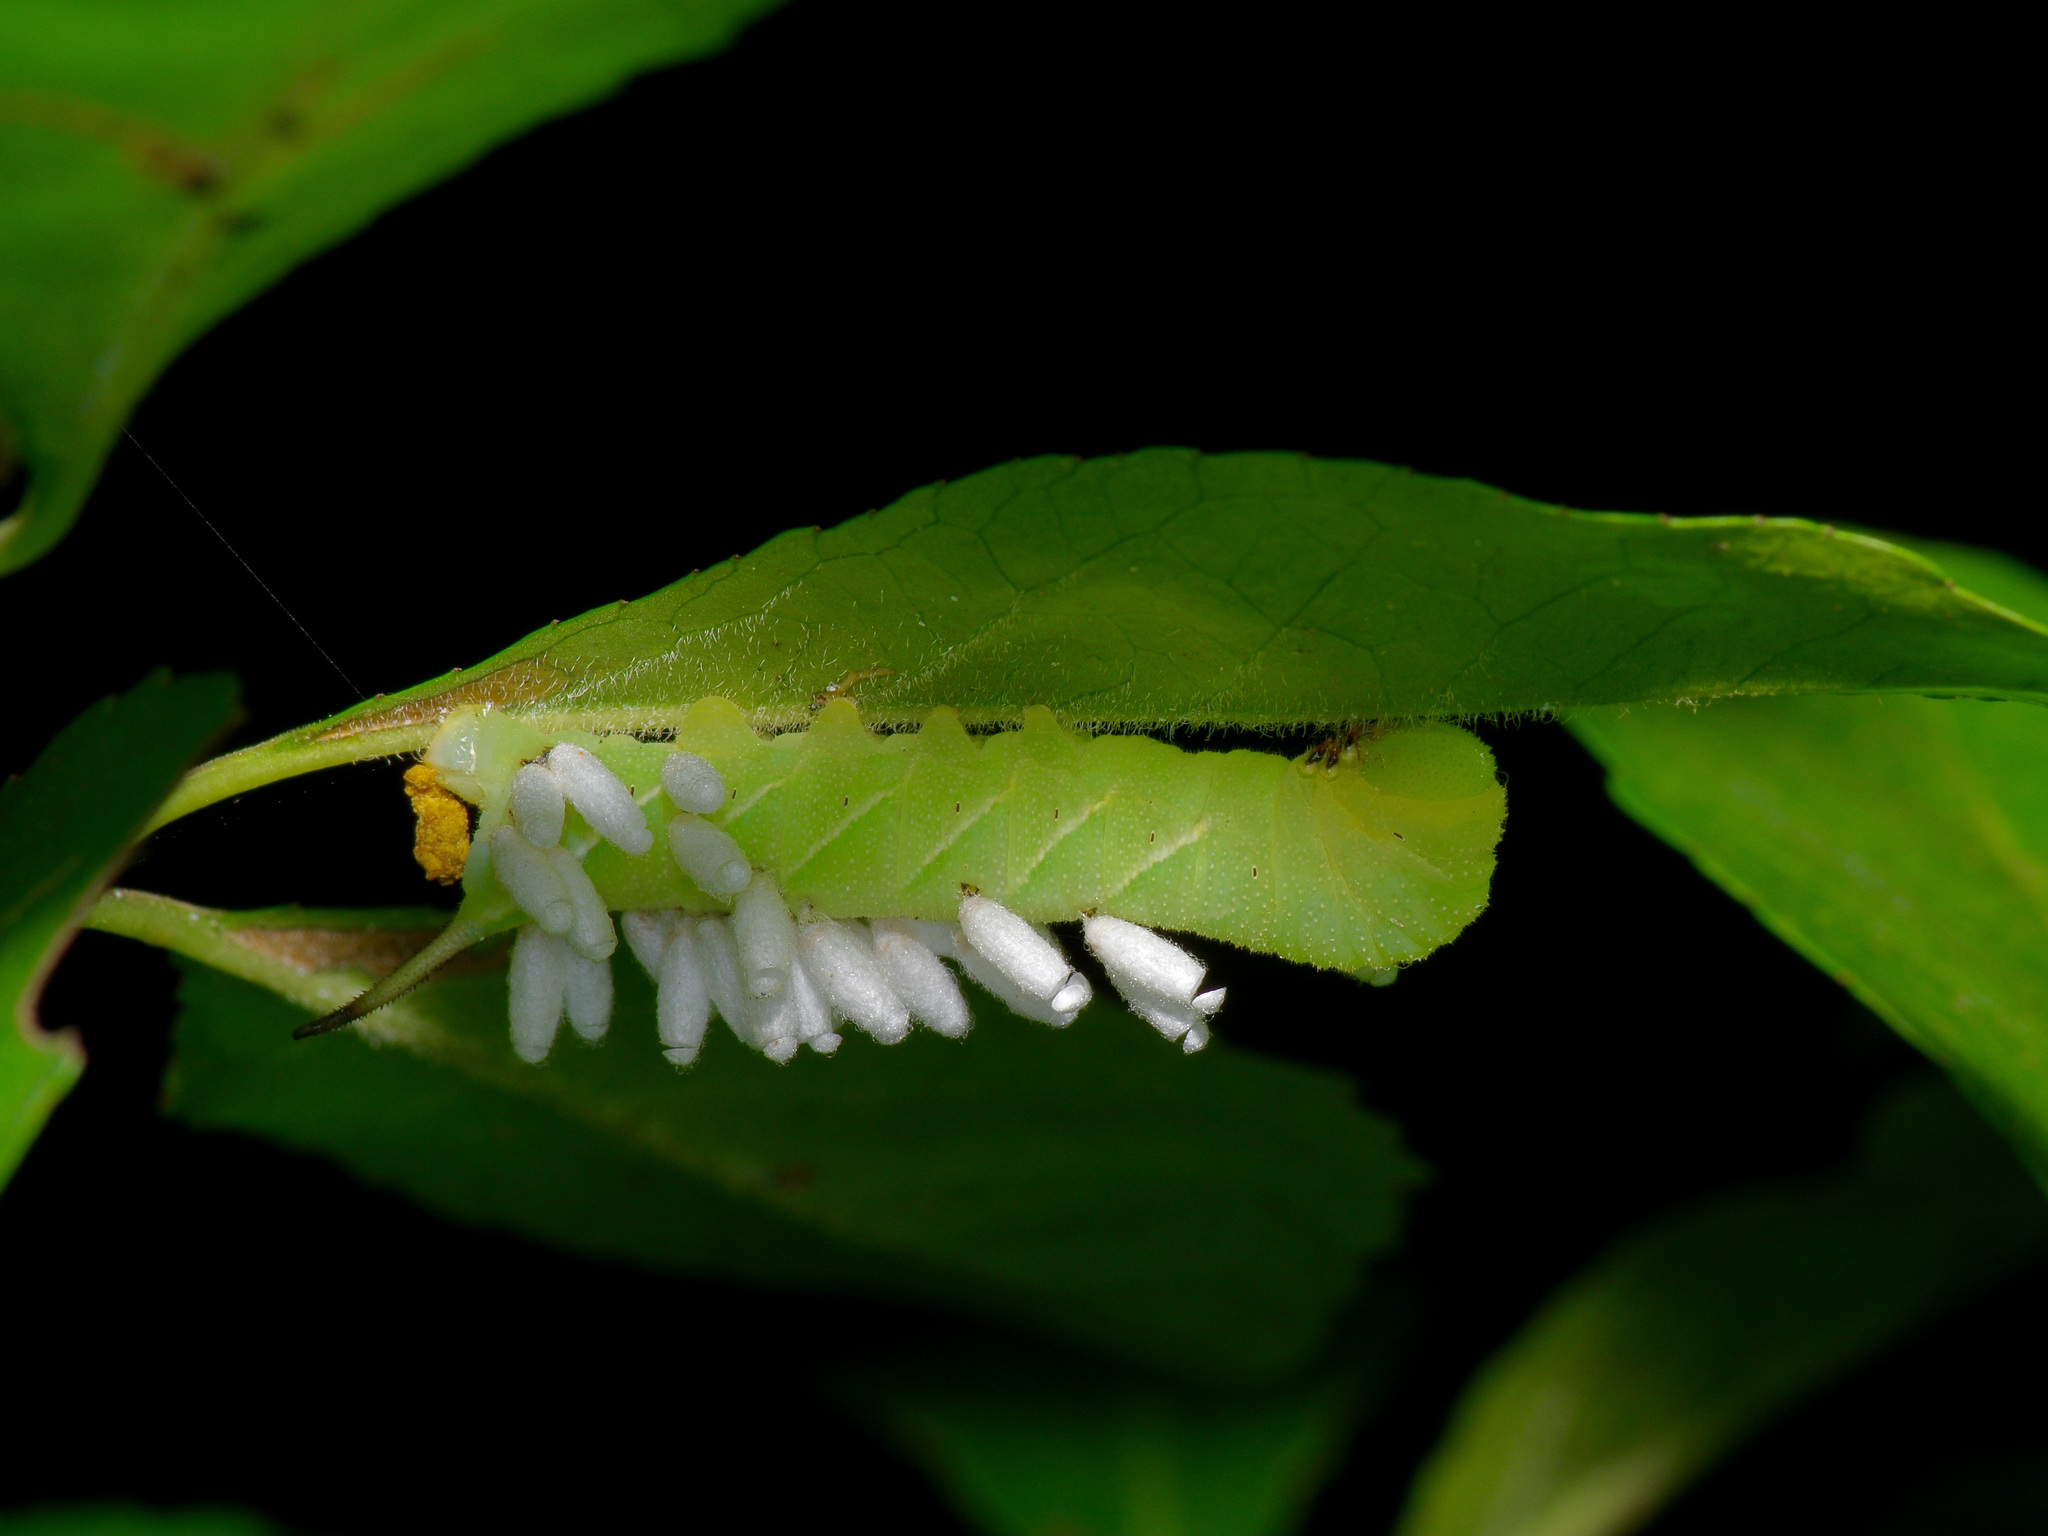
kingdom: Animalia
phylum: Arthropoda
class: Insecta
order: Lepidoptera
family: Sphingidae
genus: Dolba
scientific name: Dolba hyloeus
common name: Pawpaw sphinx
